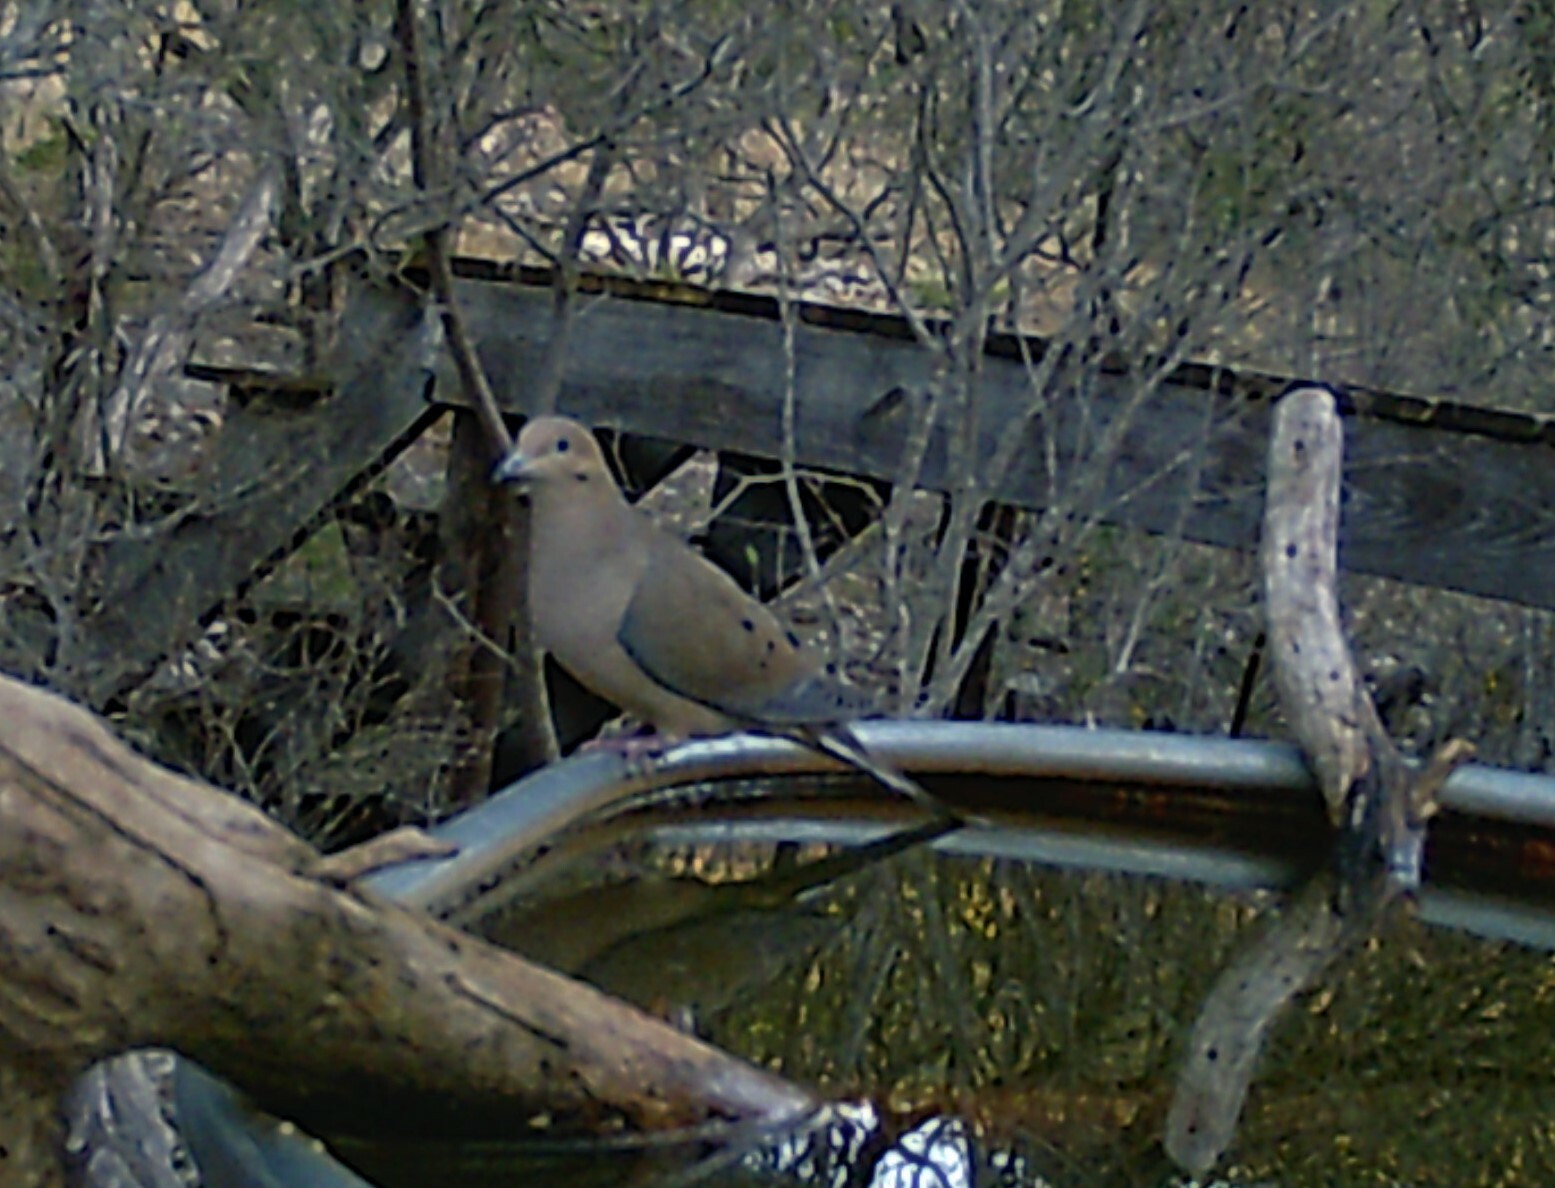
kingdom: Animalia
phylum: Chordata
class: Aves
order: Columbiformes
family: Columbidae
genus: Zenaida
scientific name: Zenaida macroura
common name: Mourning dove
